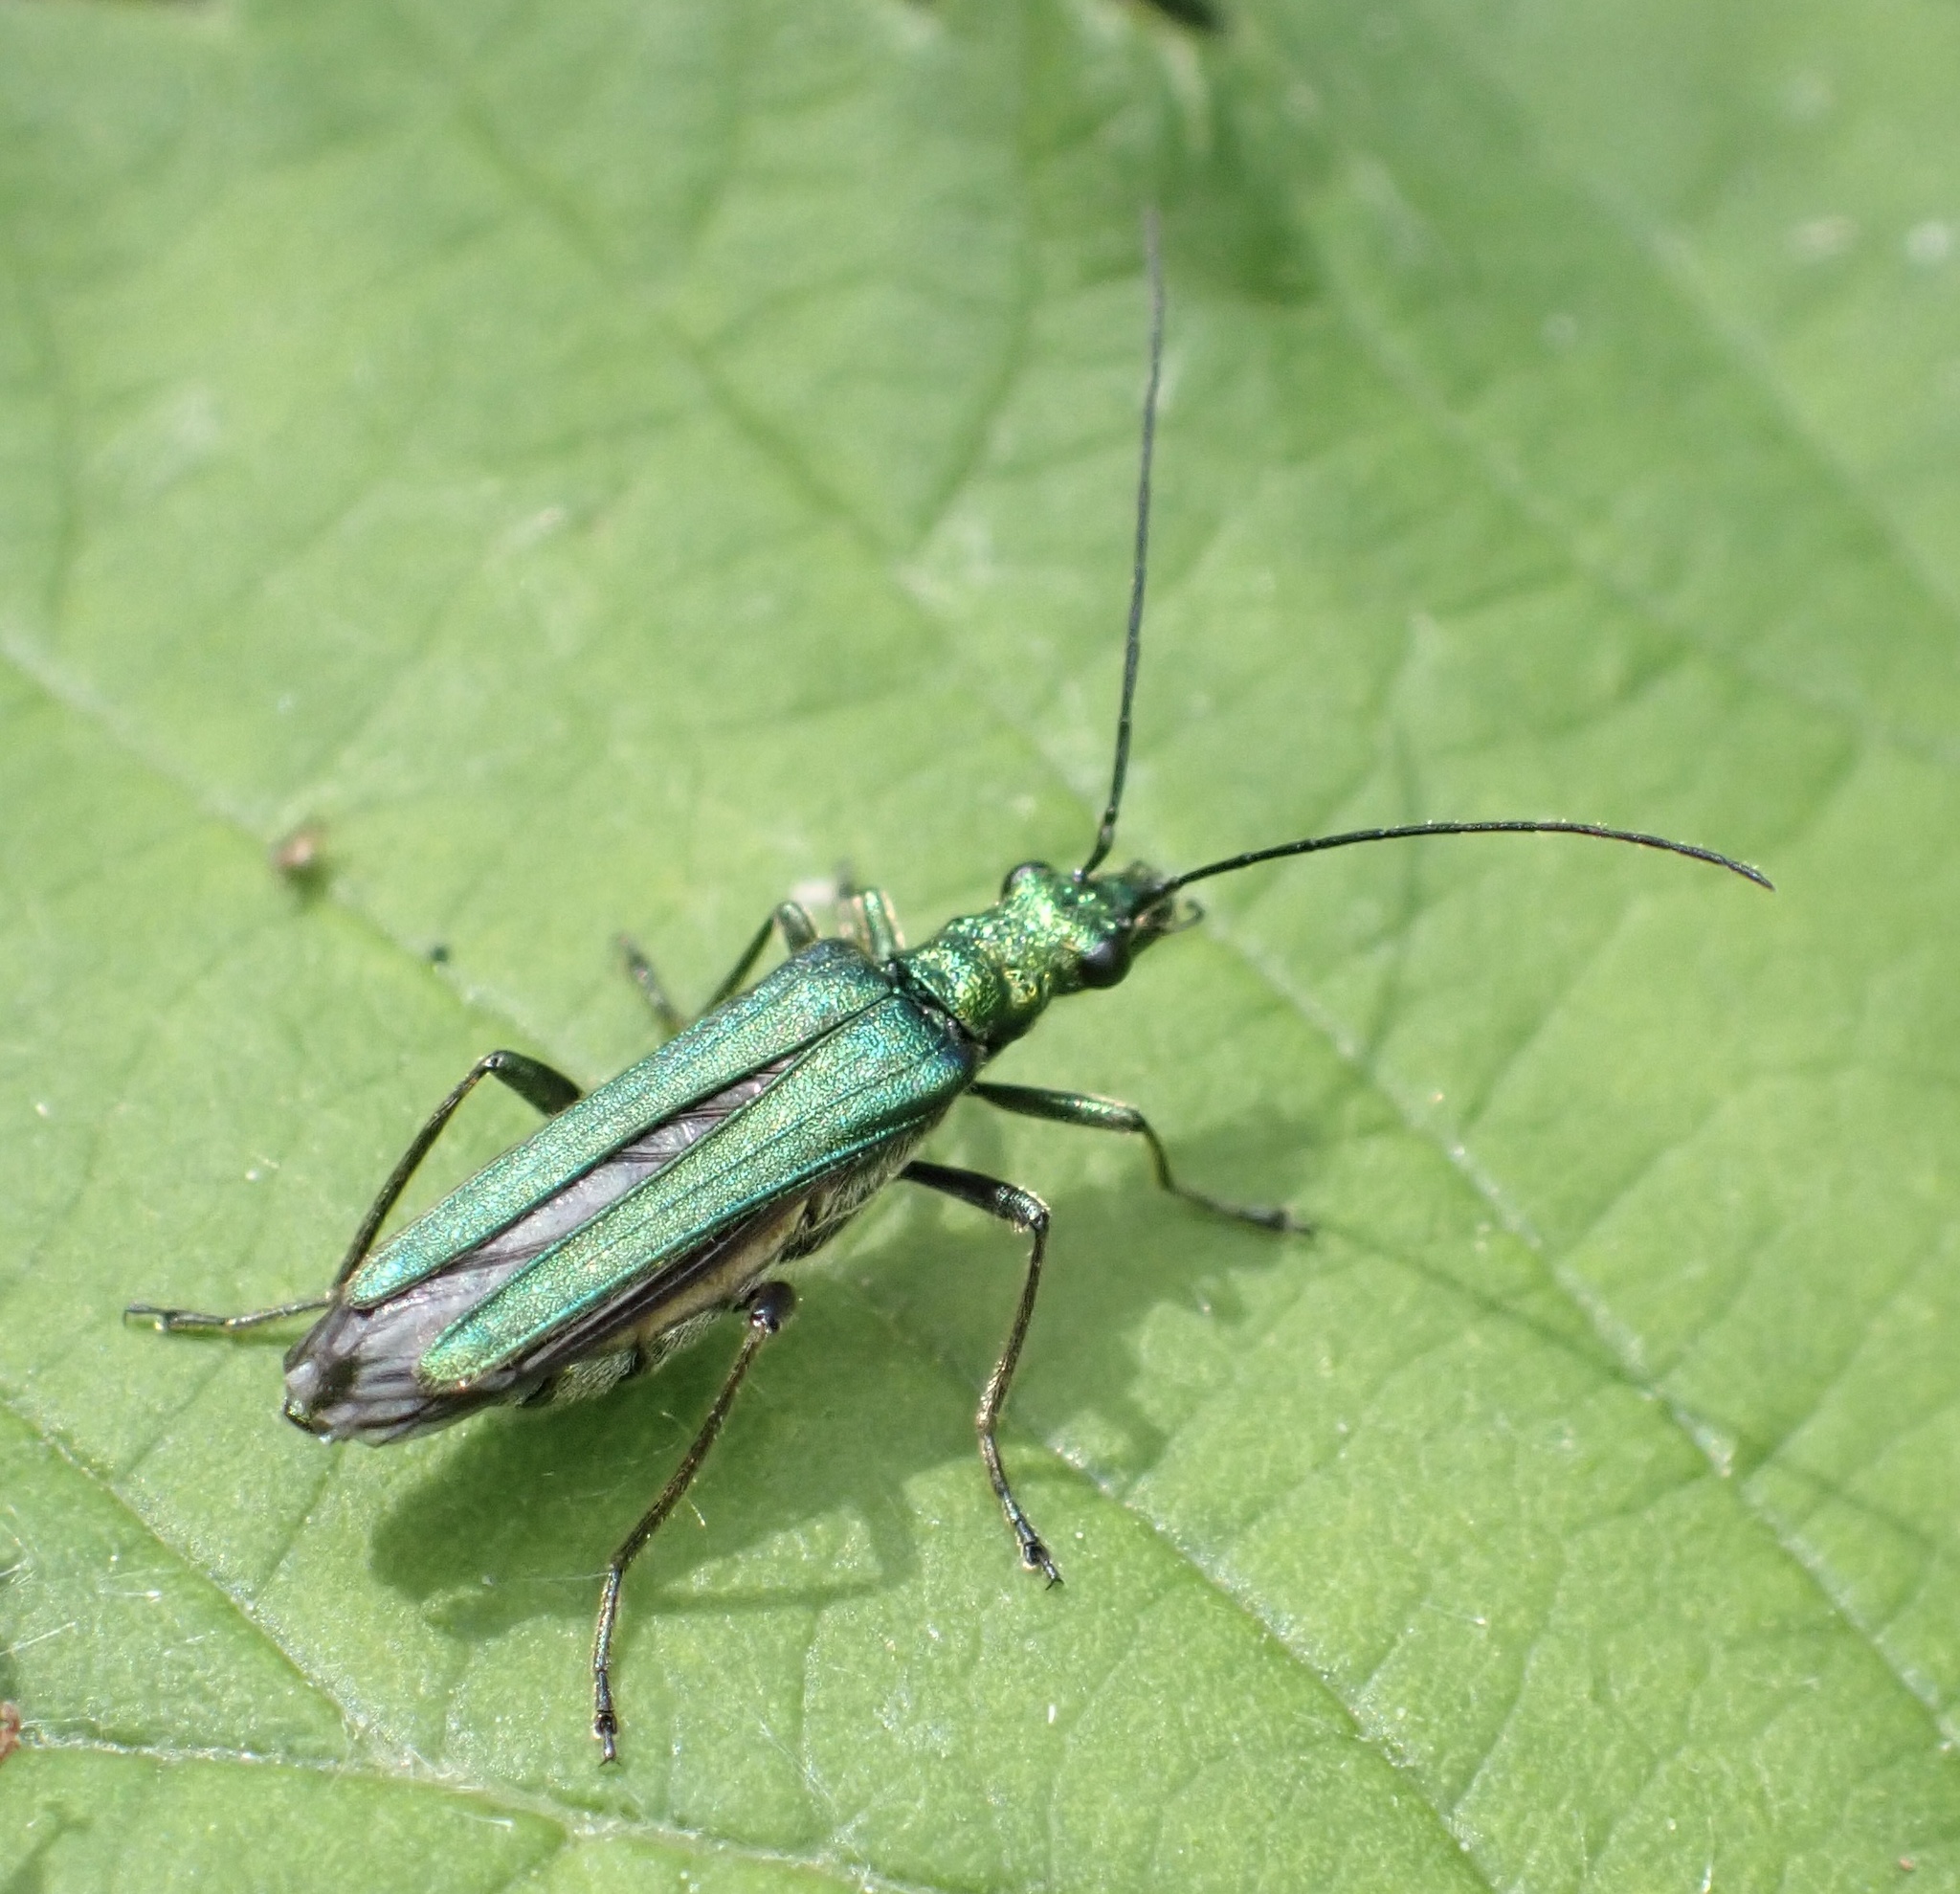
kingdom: Animalia
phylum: Arthropoda
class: Insecta
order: Coleoptera
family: Oedemeridae
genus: Oedemera
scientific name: Oedemera nobilis
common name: Swollen-thighed beetle
